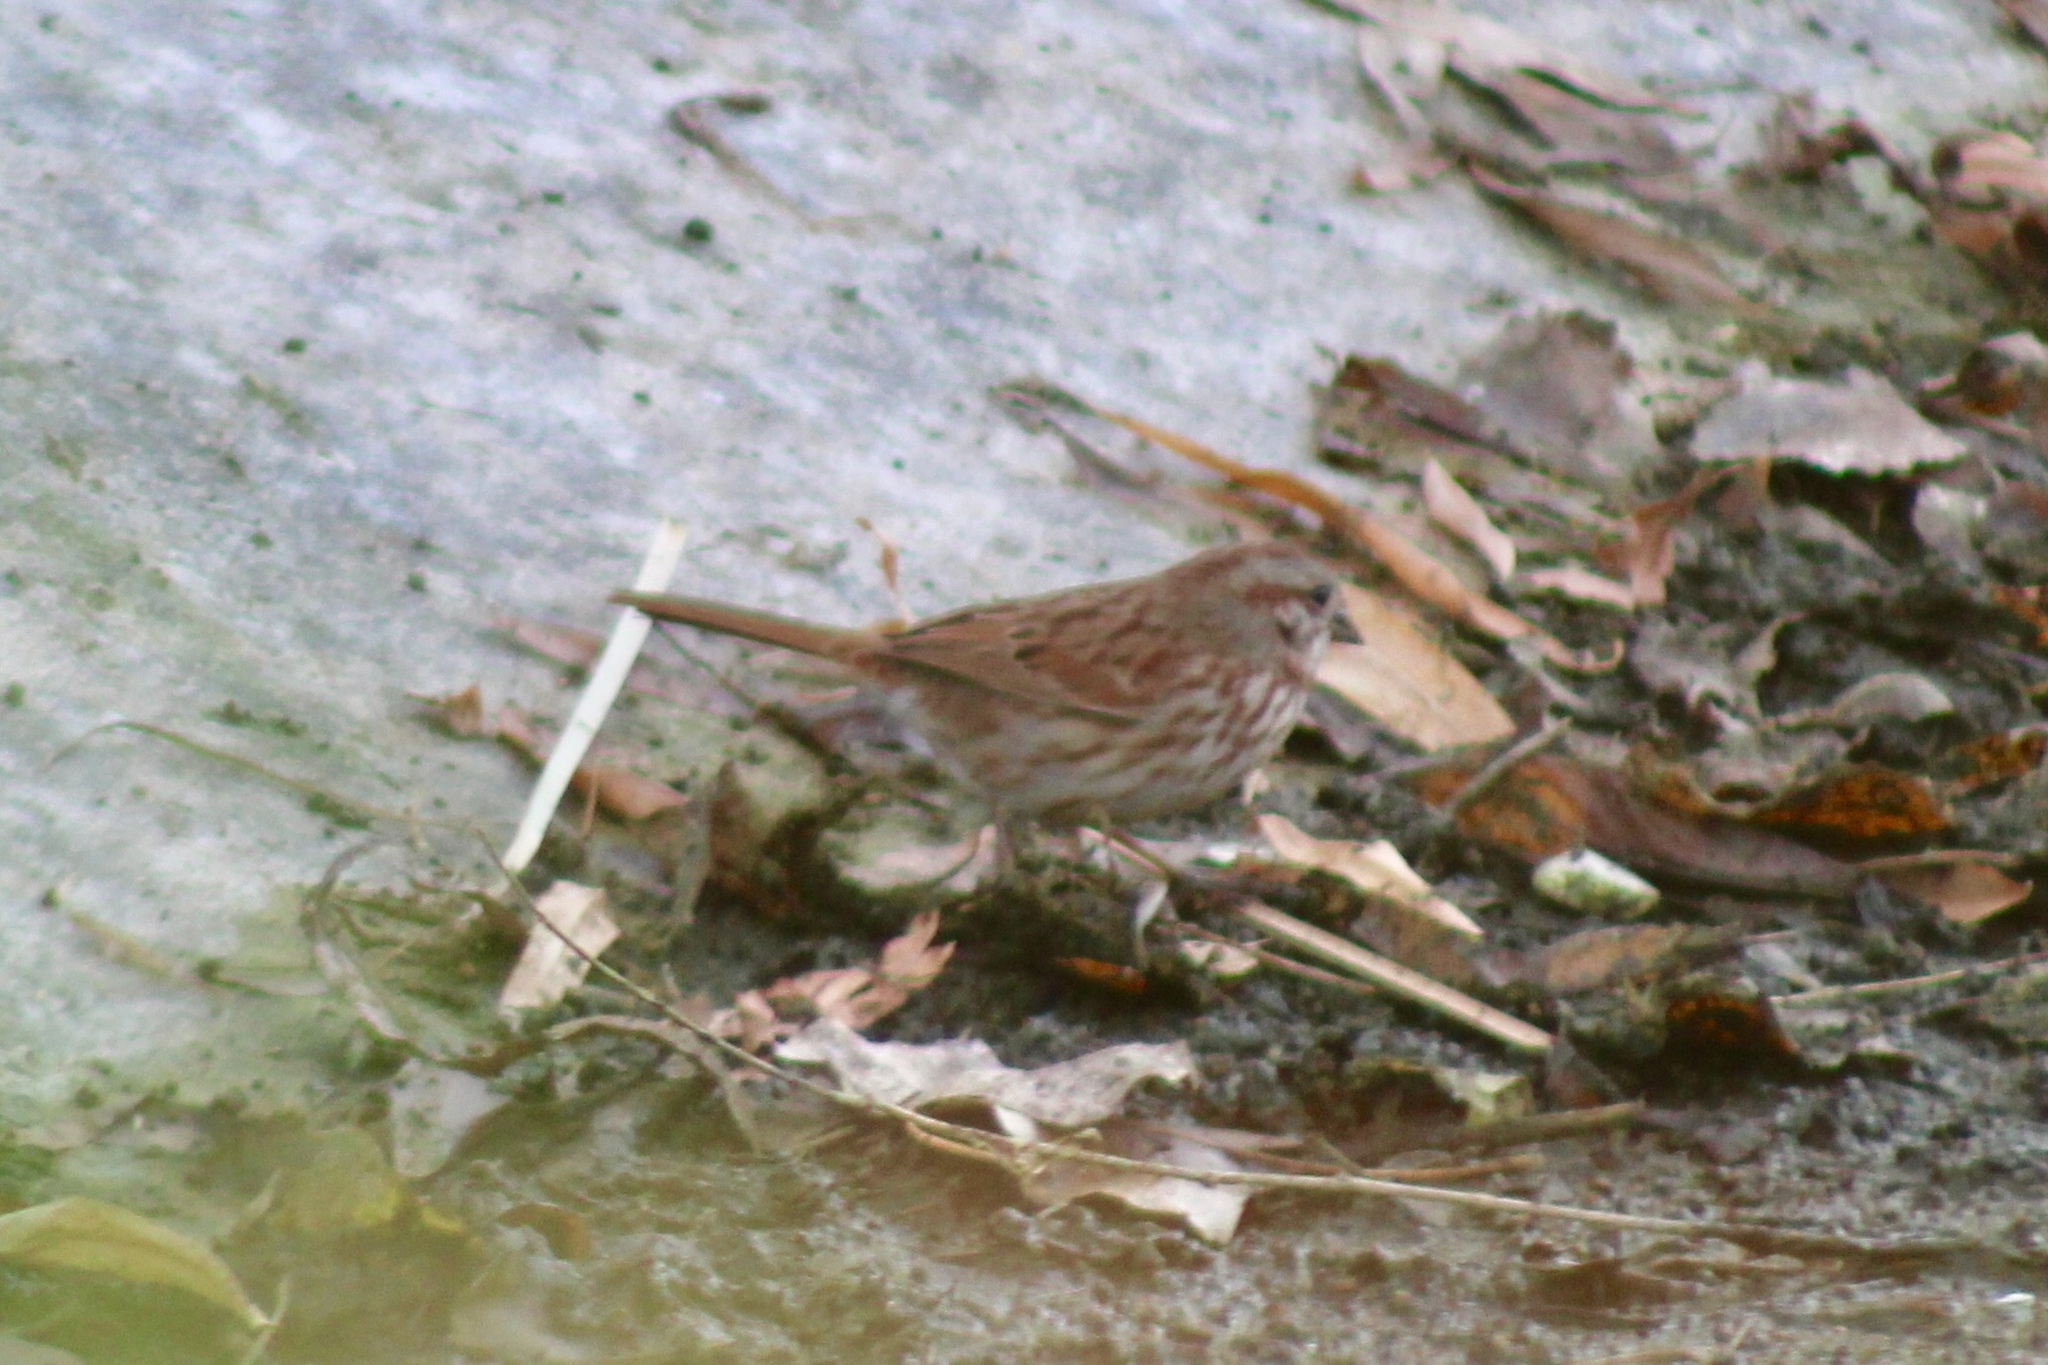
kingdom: Animalia
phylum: Chordata
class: Aves
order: Passeriformes
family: Passerellidae
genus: Melospiza
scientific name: Melospiza melodia
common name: Song sparrow
